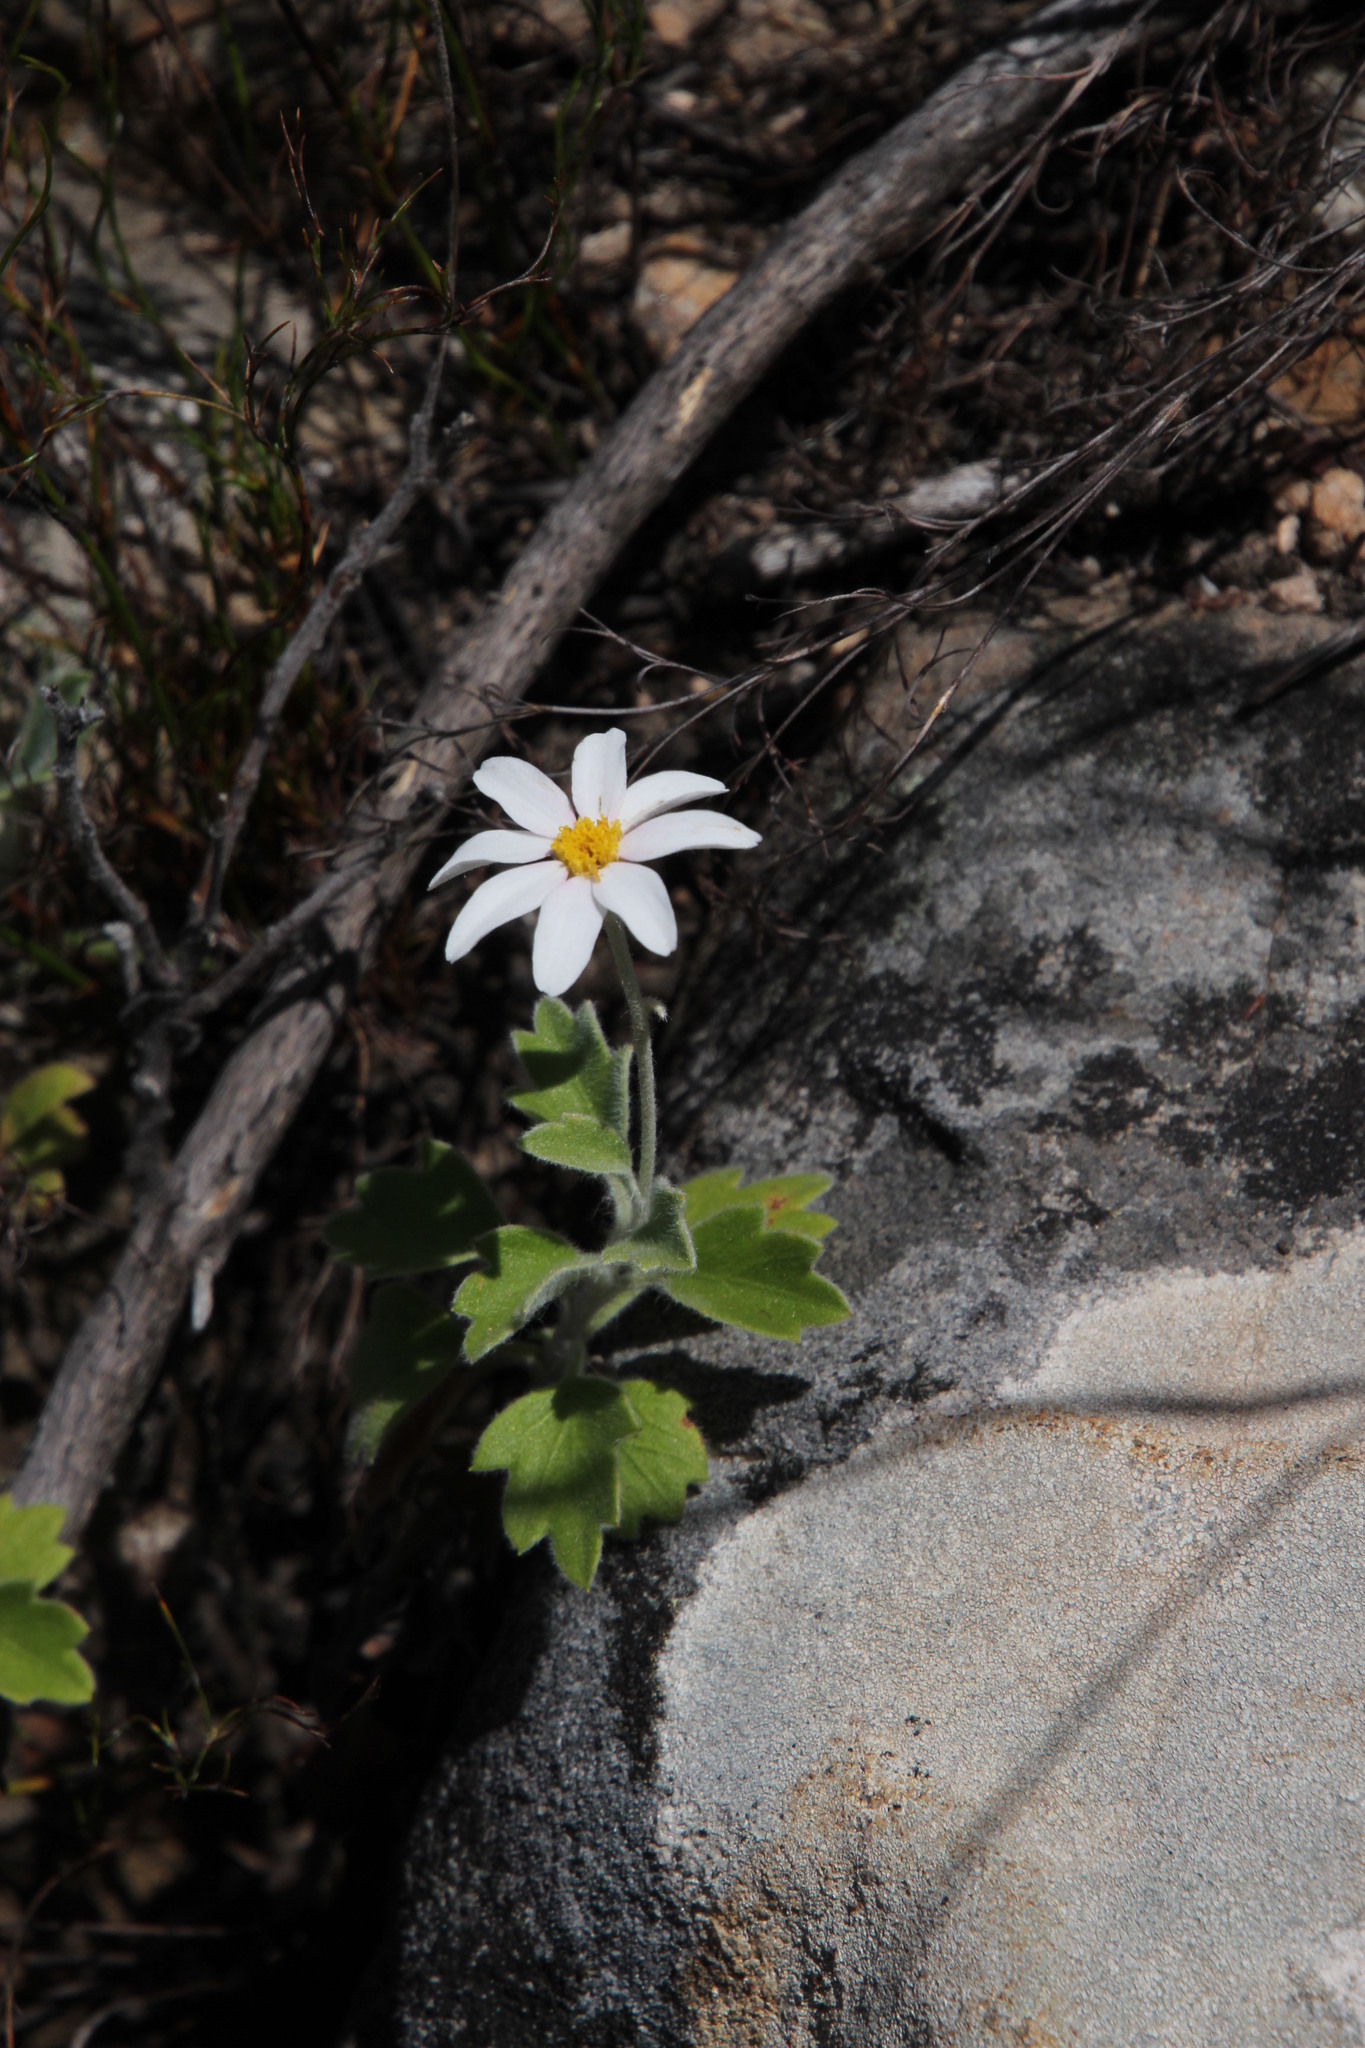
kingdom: Plantae
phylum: Tracheophyta
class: Magnoliopsida
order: Asterales
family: Asteraceae
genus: Lidbeckia
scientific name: Lidbeckia quinqueloba
